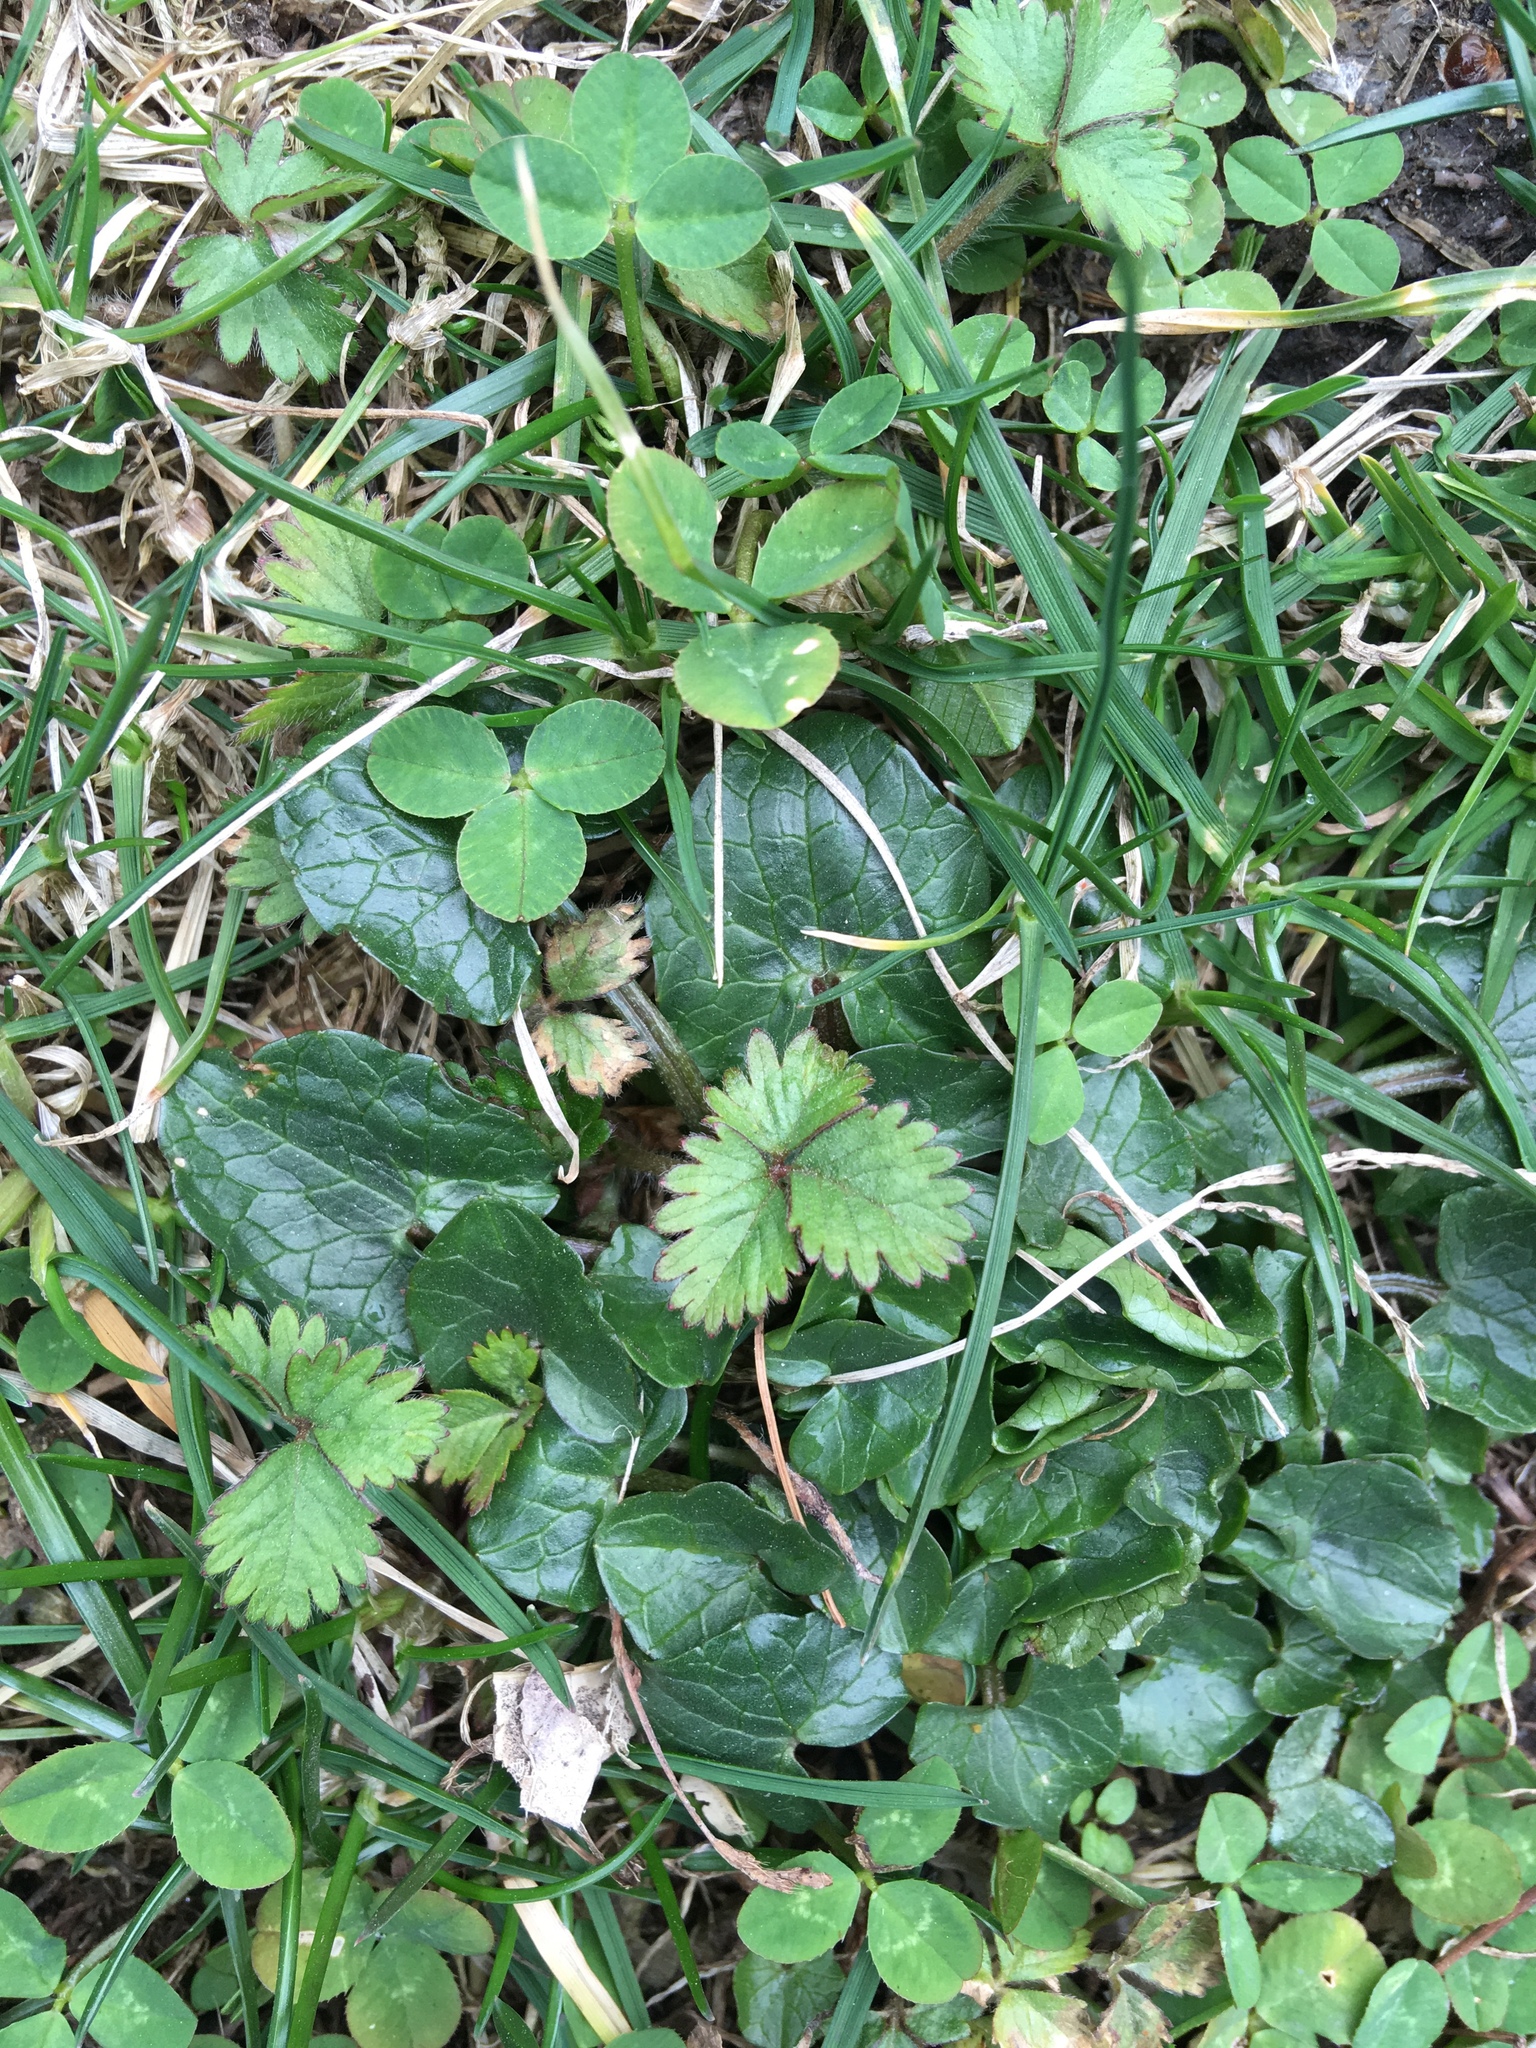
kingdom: Plantae
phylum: Tracheophyta
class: Magnoliopsida
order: Ranunculales
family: Ranunculaceae
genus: Ficaria
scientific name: Ficaria verna
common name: Lesser celandine
